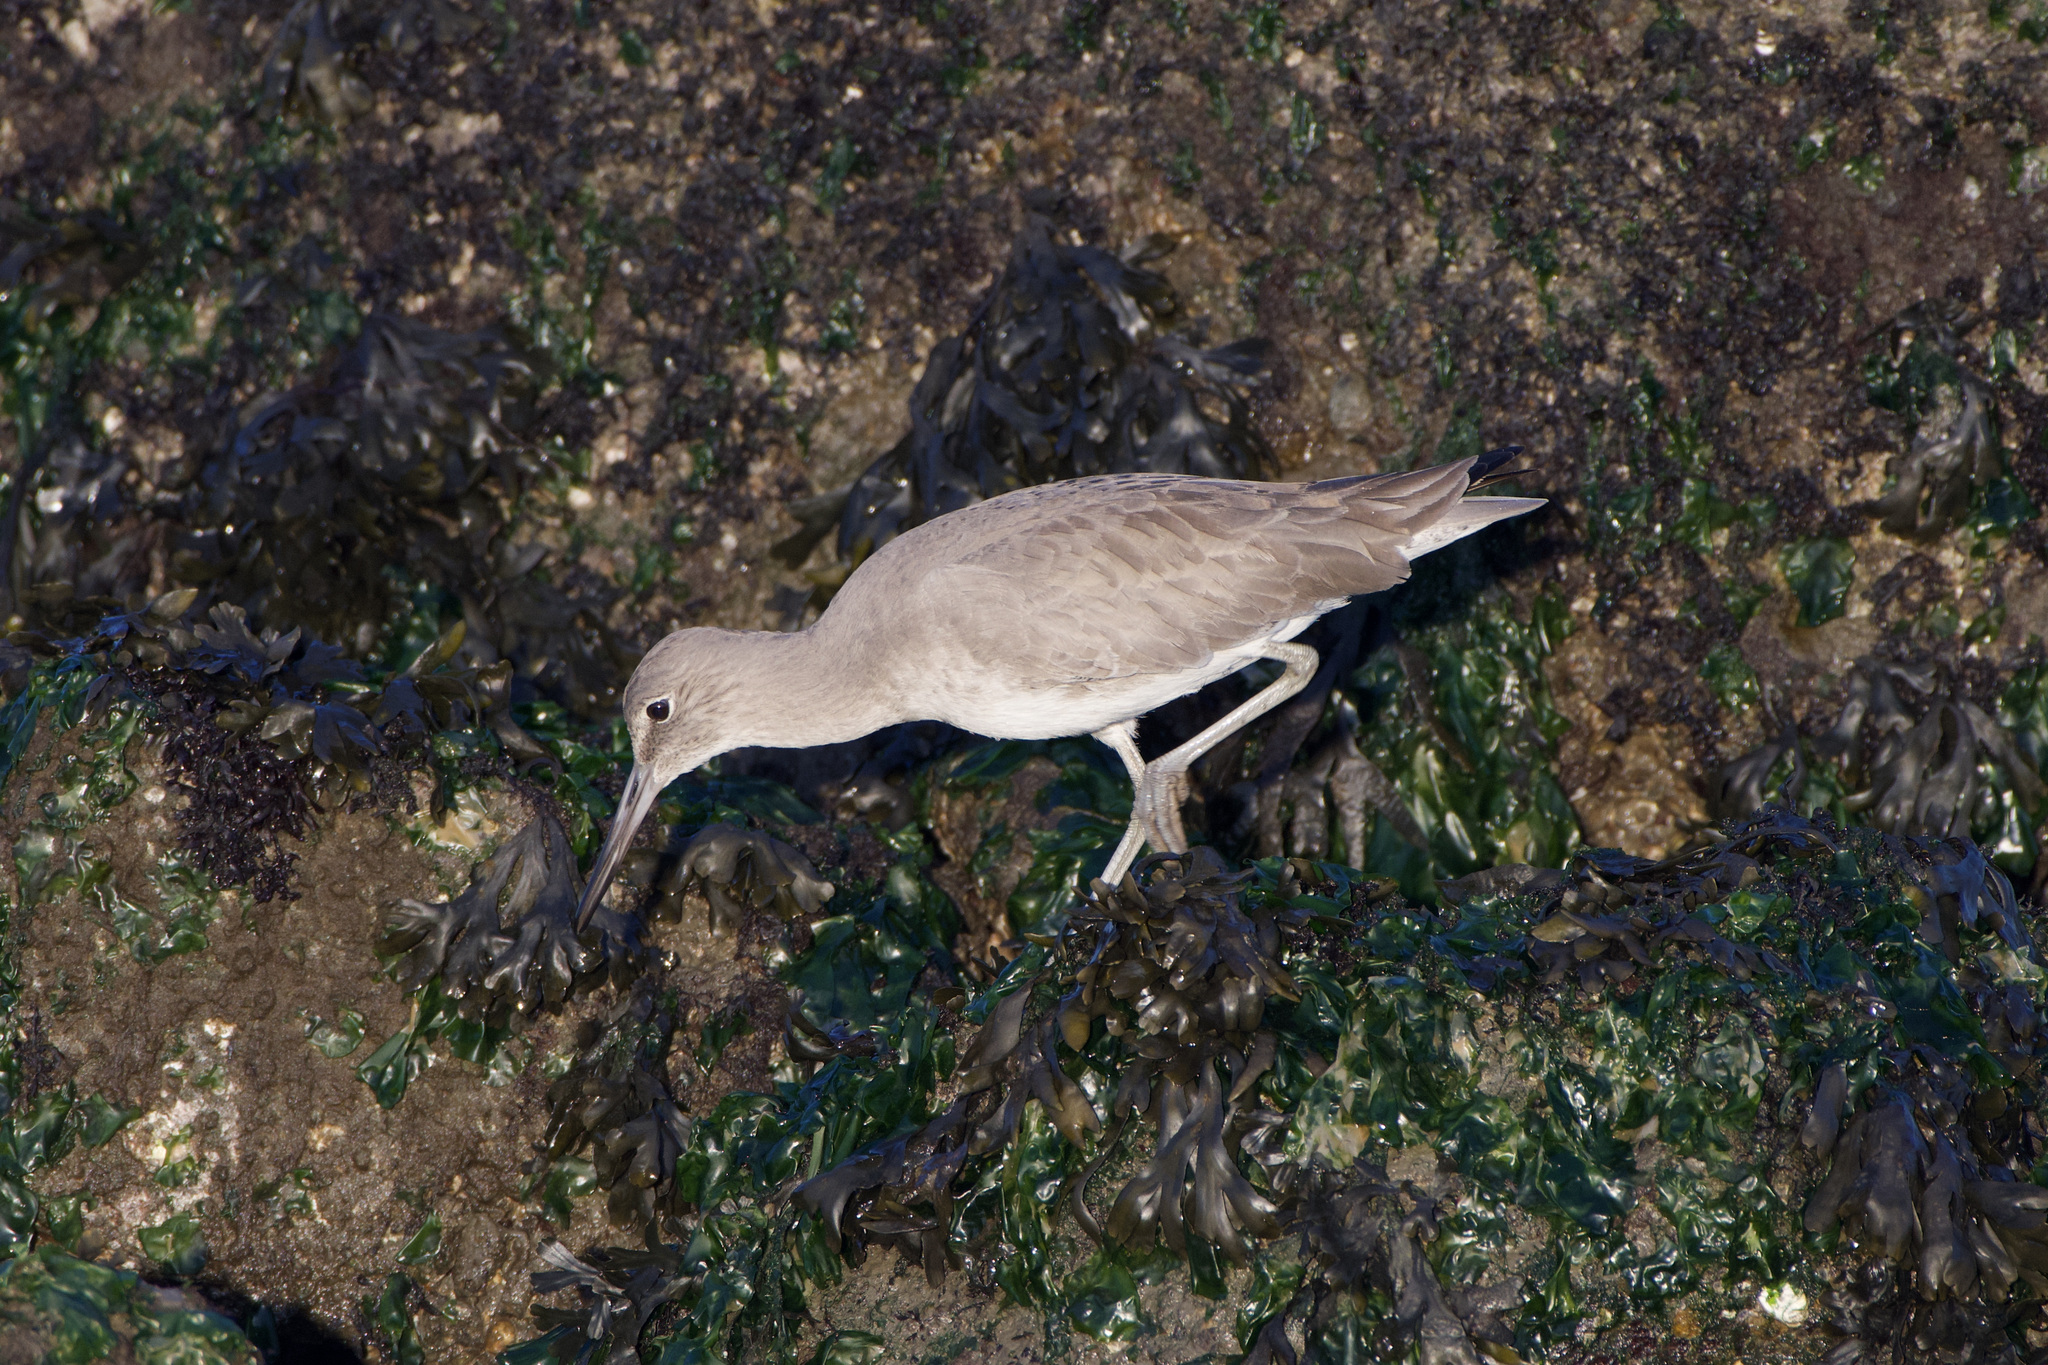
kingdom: Animalia
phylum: Chordata
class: Aves
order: Charadriiformes
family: Scolopacidae
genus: Tringa
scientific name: Tringa semipalmata
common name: Willet
